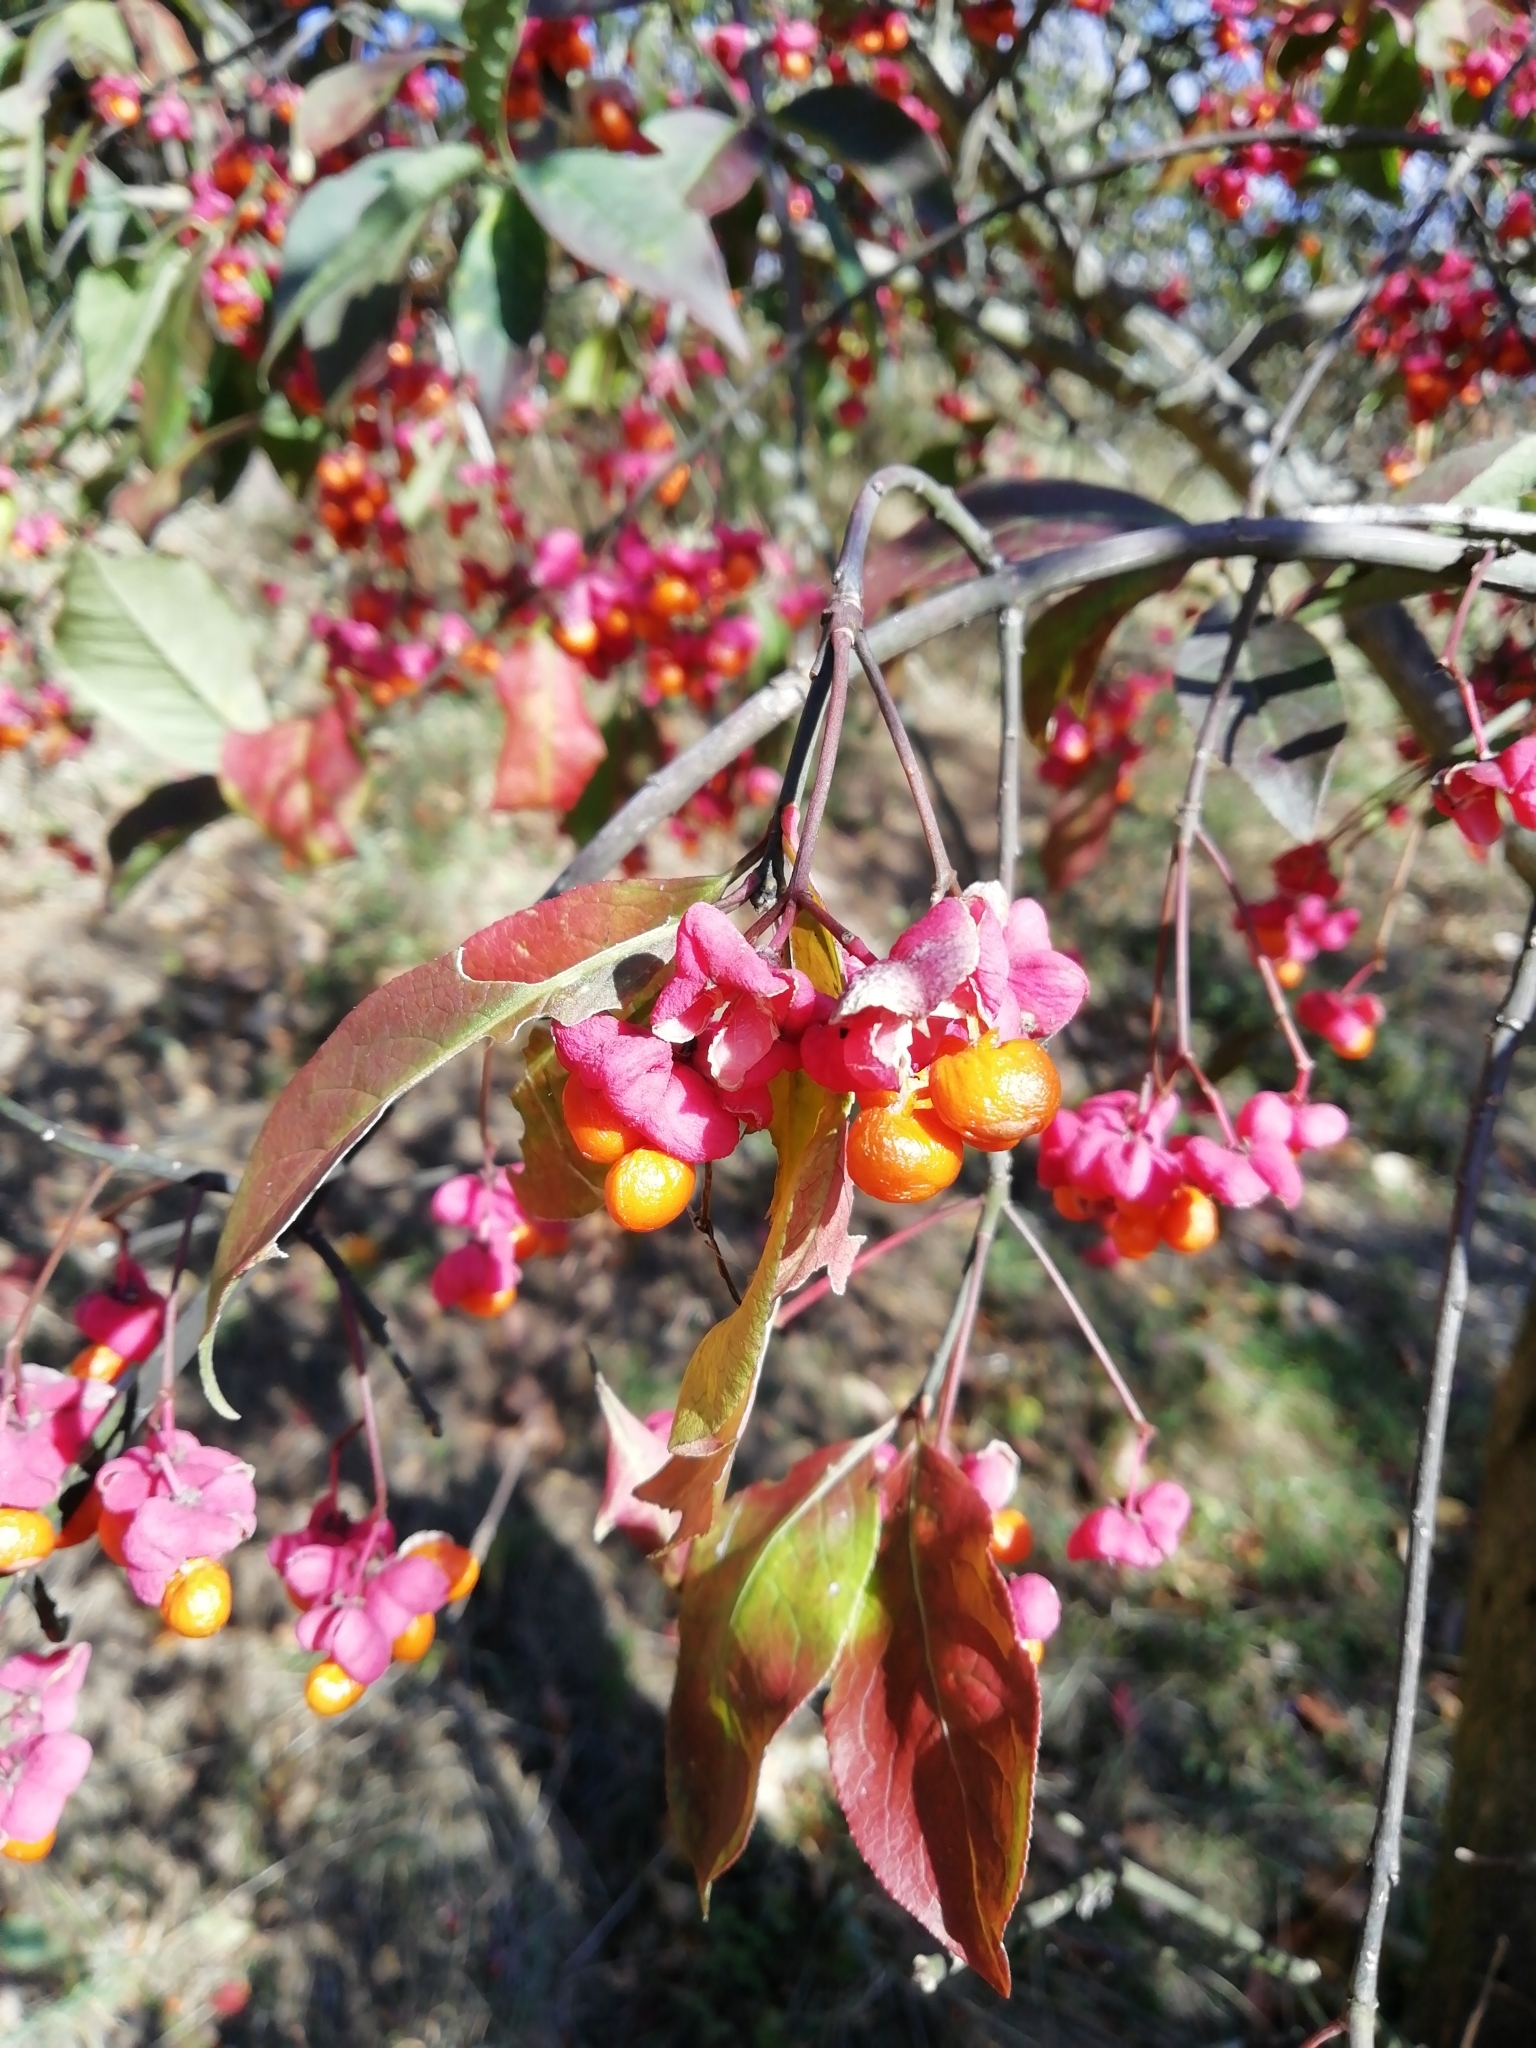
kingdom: Plantae
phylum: Tracheophyta
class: Magnoliopsida
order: Celastrales
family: Celastraceae
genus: Euonymus
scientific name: Euonymus europaeus
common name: Spindle
